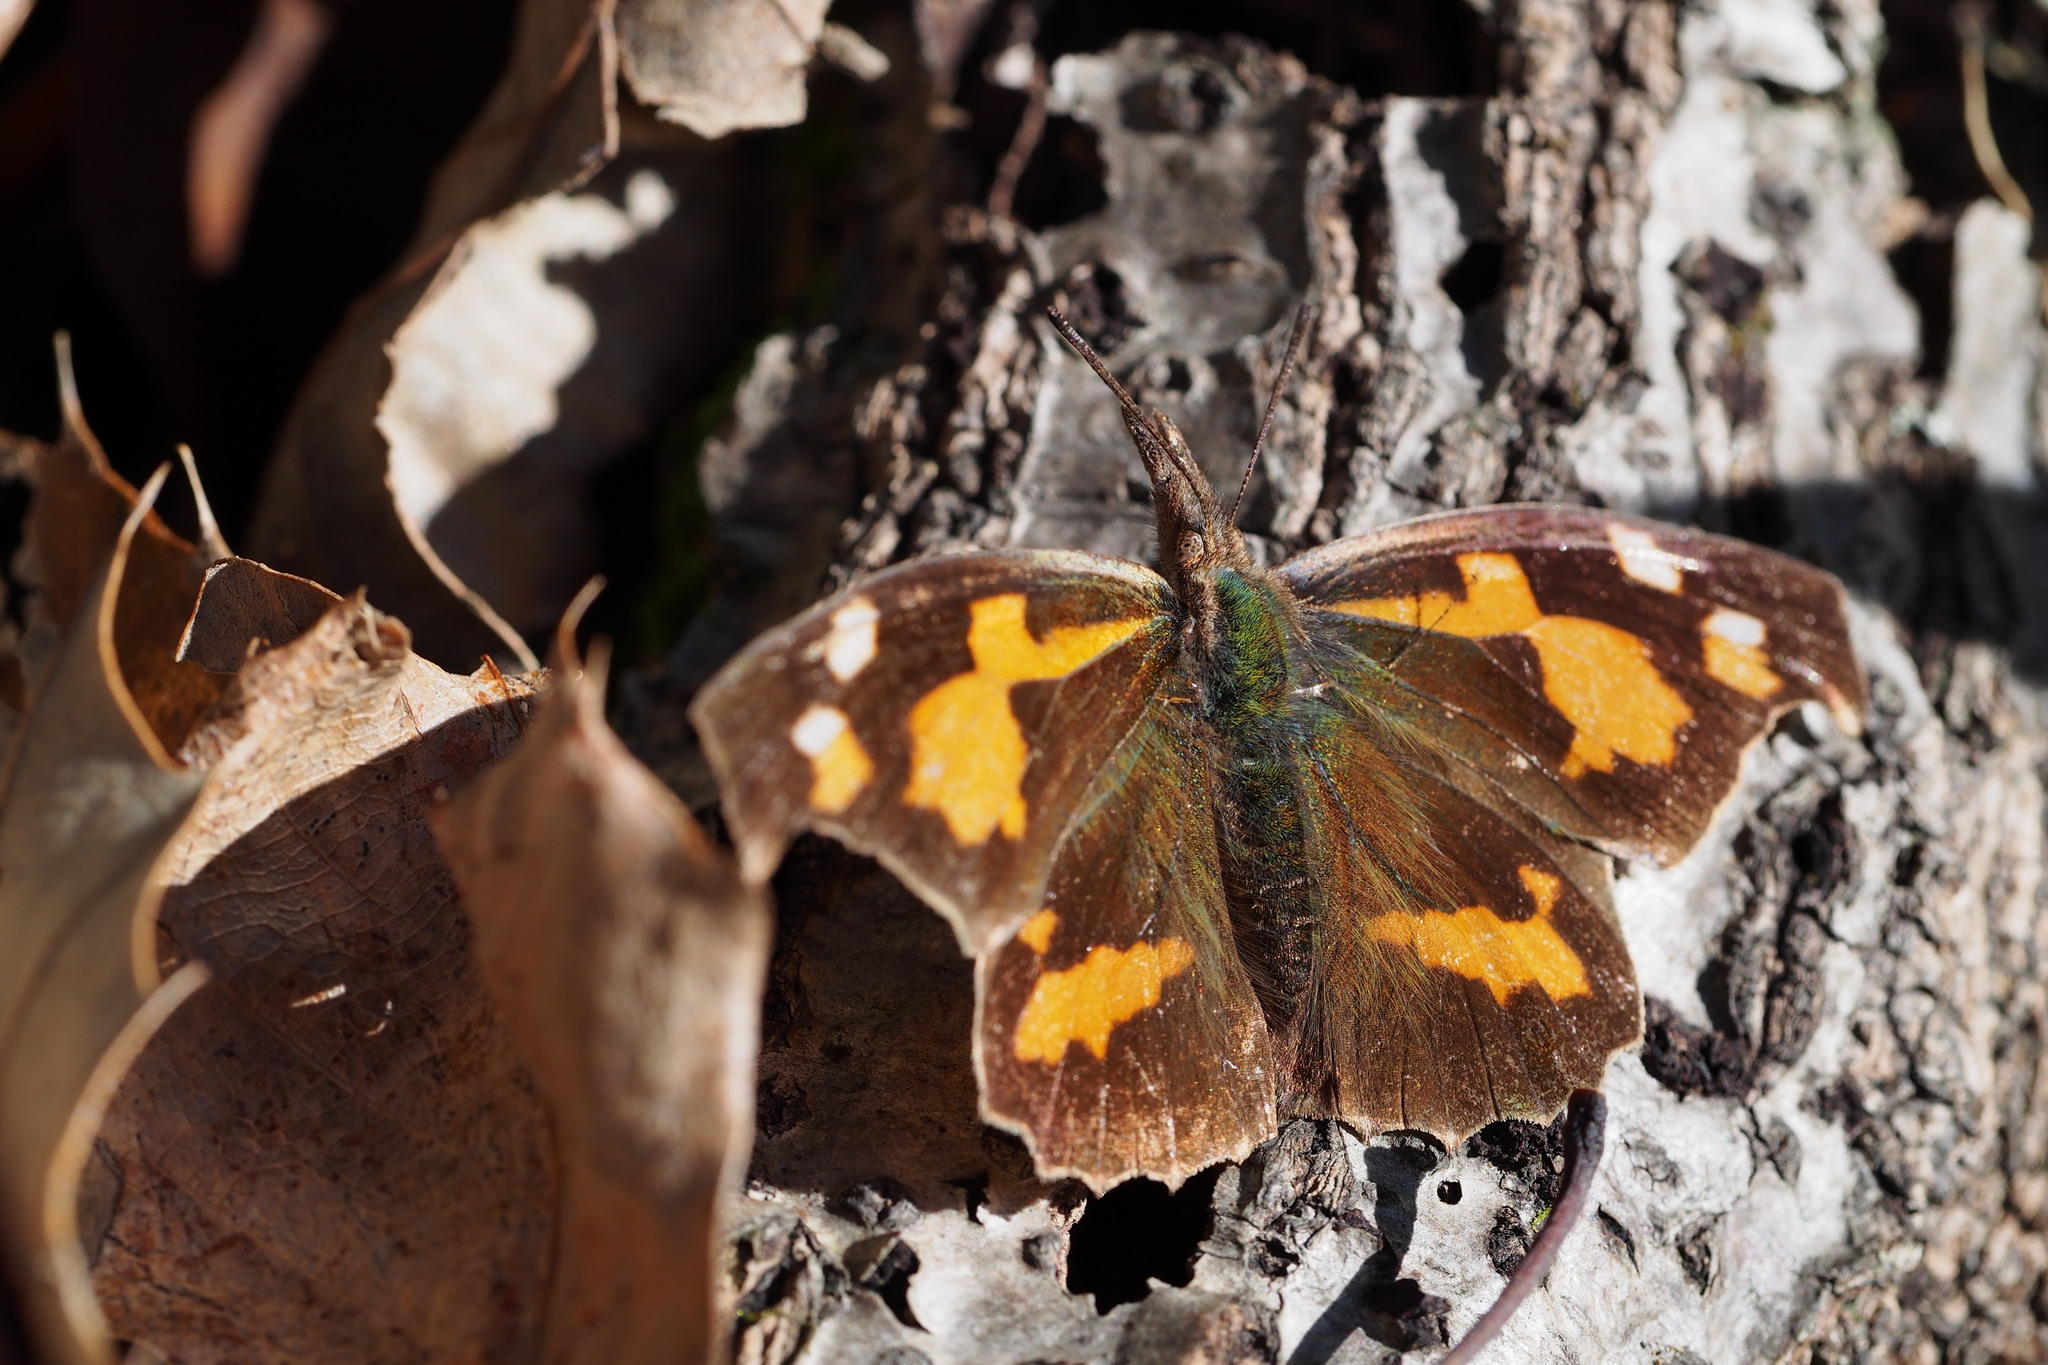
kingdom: Animalia
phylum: Arthropoda
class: Insecta
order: Lepidoptera
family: Nymphalidae
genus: Libythea
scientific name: Libythea lepita
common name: Common beak
